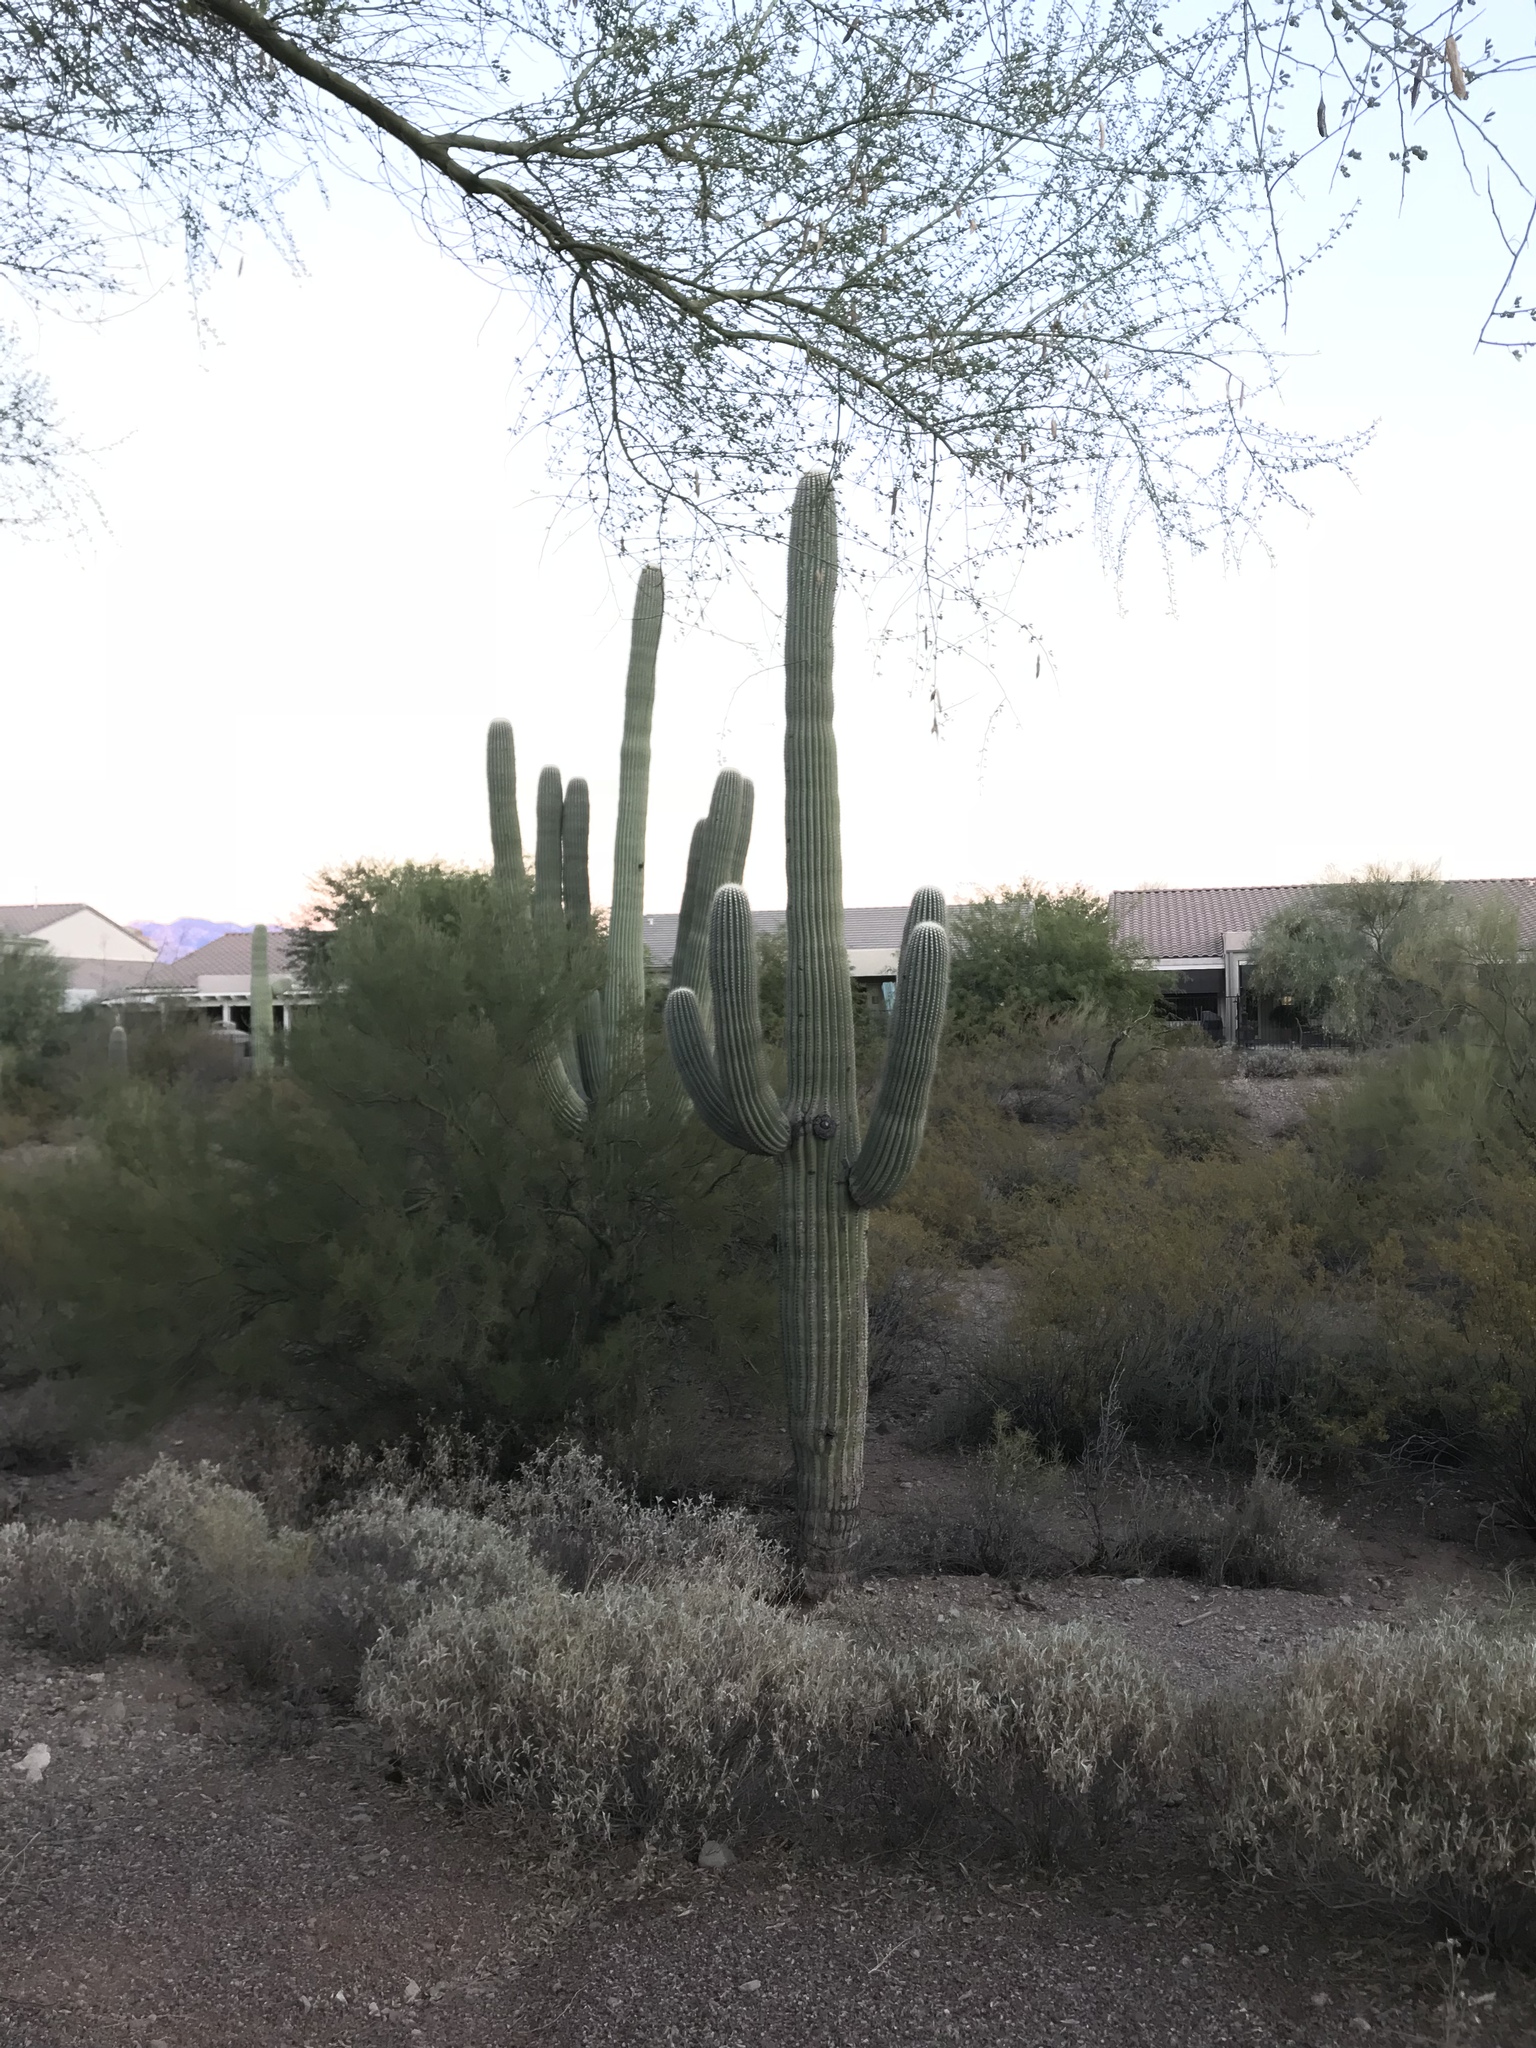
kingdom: Plantae
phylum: Tracheophyta
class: Magnoliopsida
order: Caryophyllales
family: Cactaceae
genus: Carnegiea
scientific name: Carnegiea gigantea
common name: Saguaro
